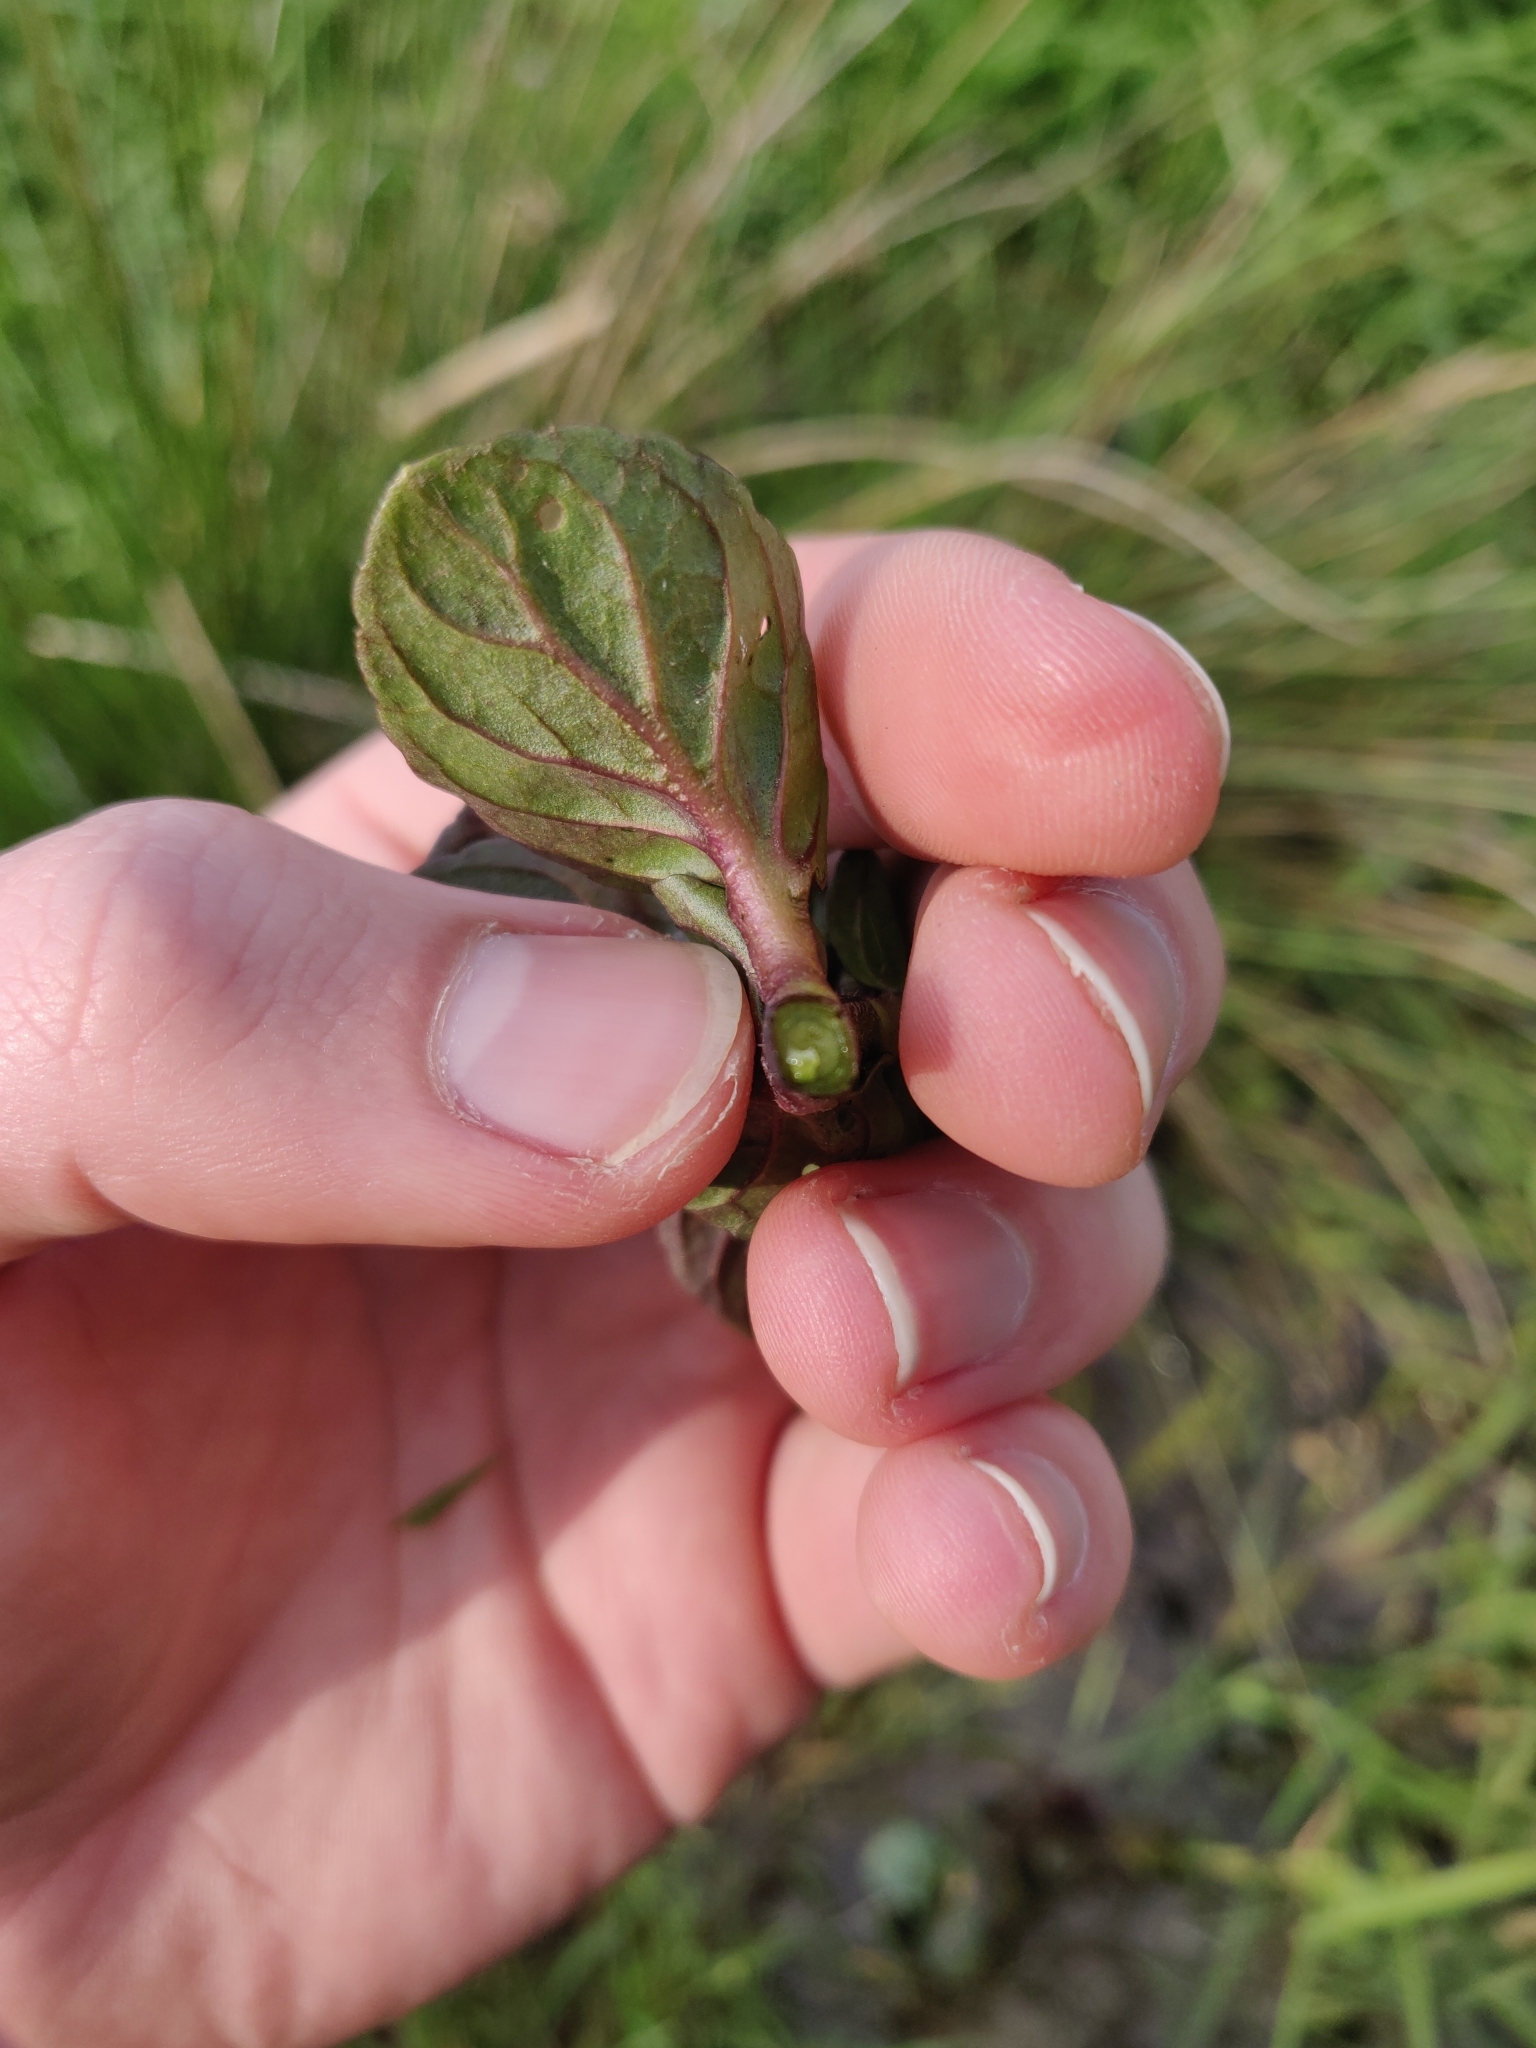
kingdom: Plantae
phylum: Tracheophyta
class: Magnoliopsida
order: Lamiales
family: Lamiaceae
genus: Mentha
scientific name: Mentha aquatica
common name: Water mint
